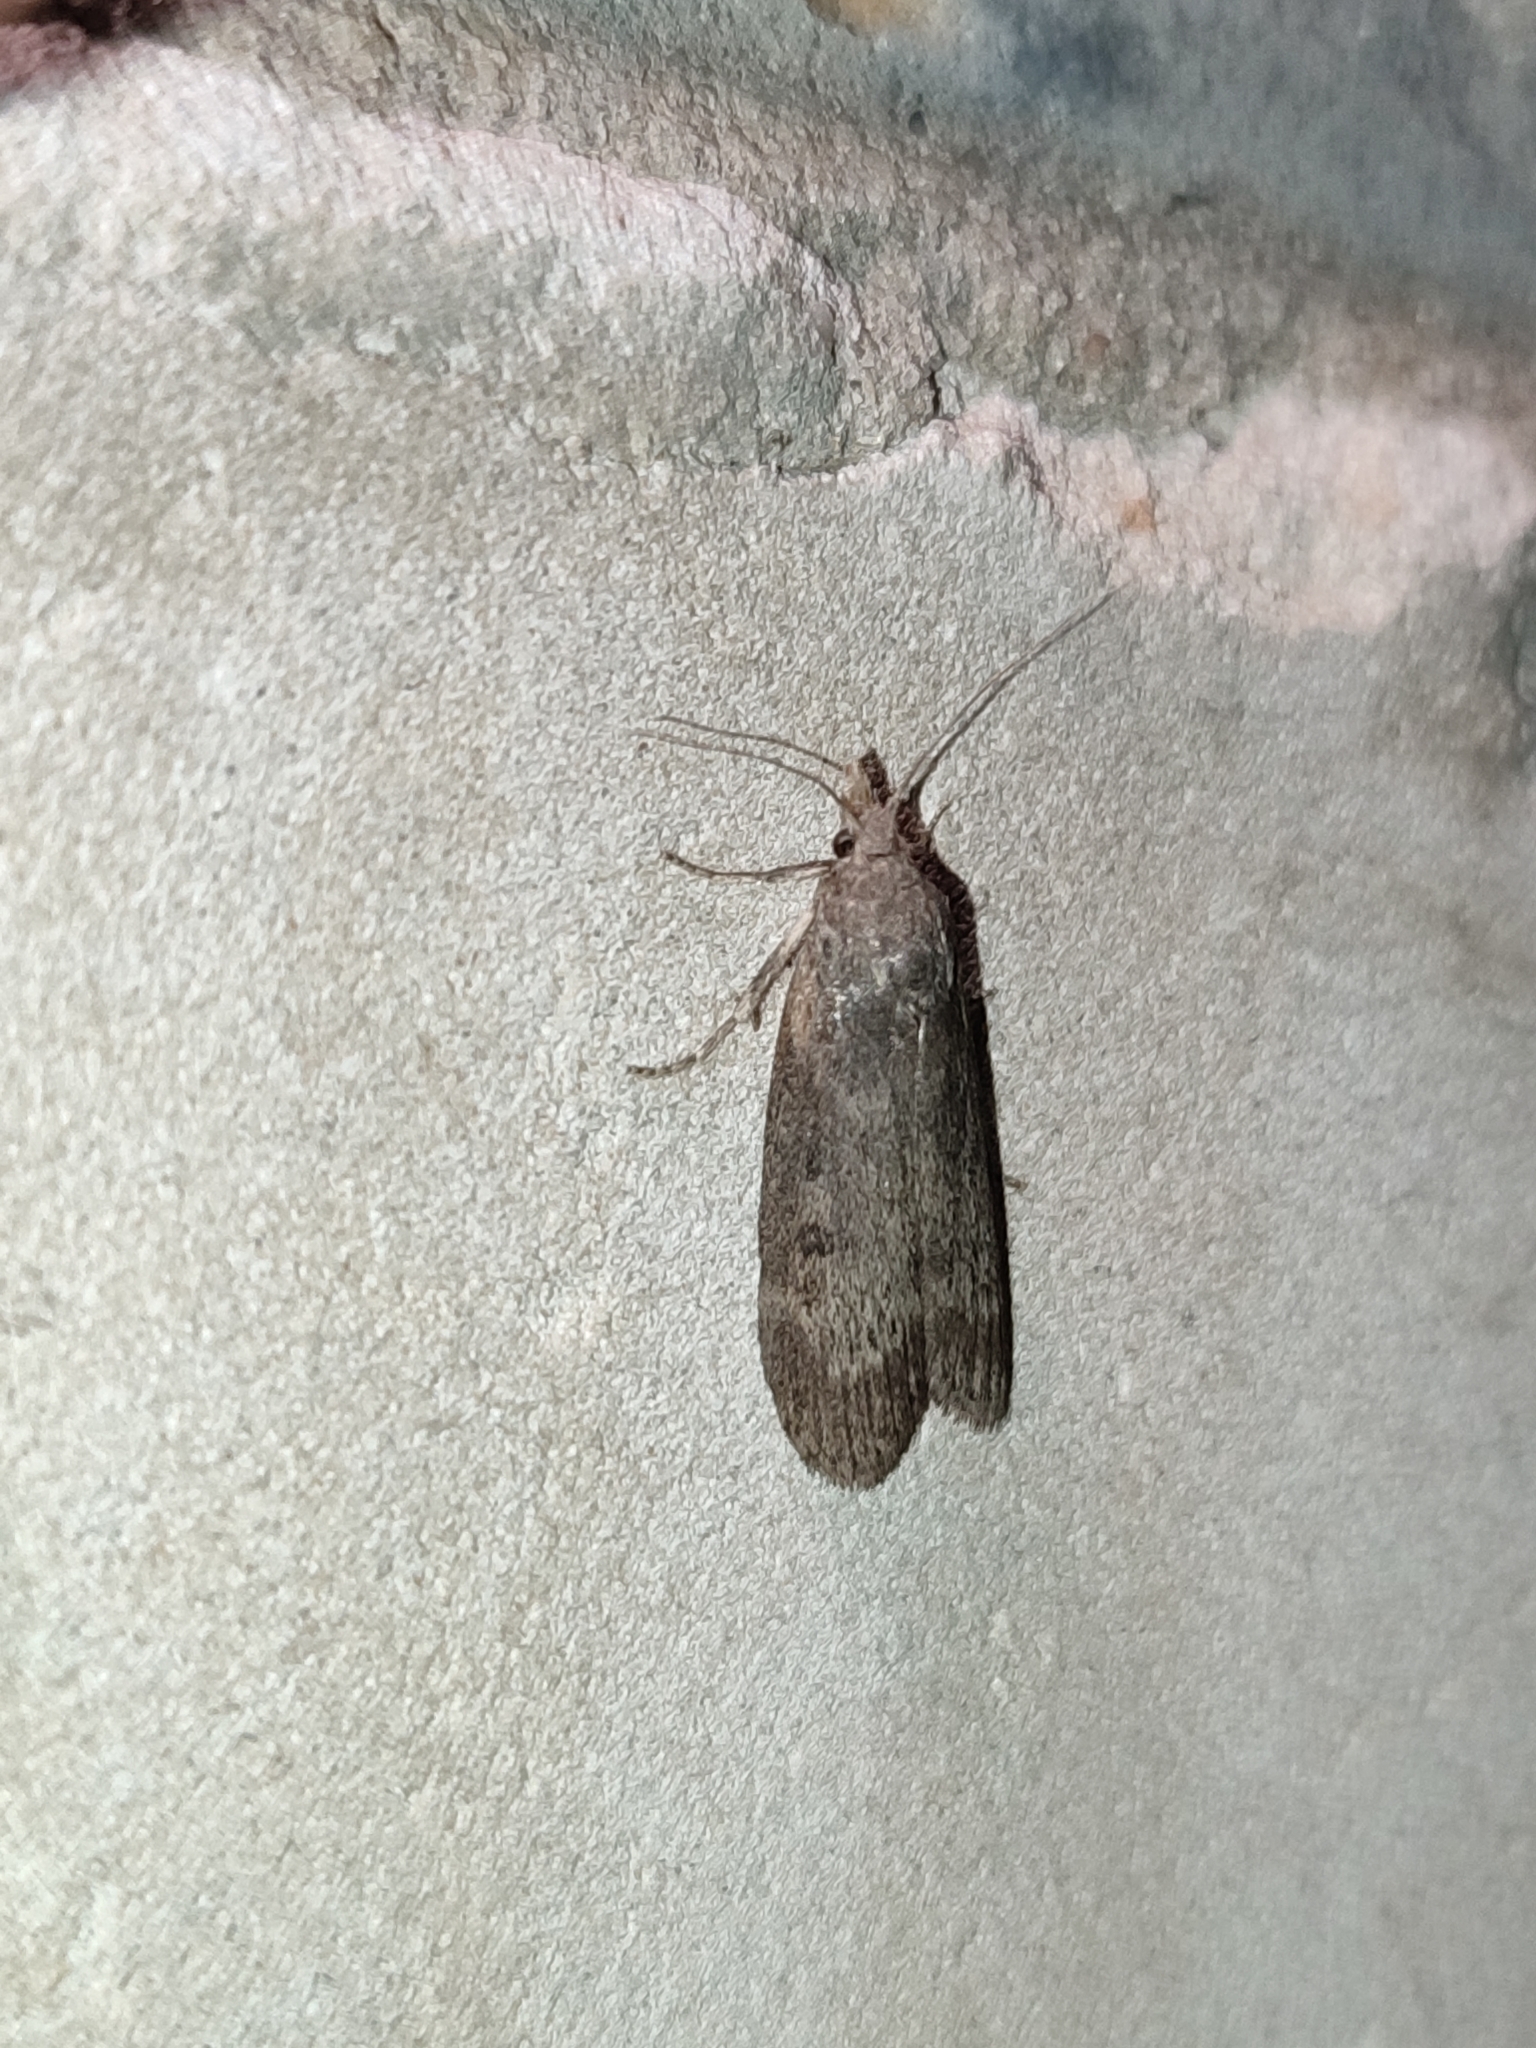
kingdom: Animalia
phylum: Arthropoda
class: Insecta
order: Lepidoptera
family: Pyralidae
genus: Lamoria
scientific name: Lamoria anella
